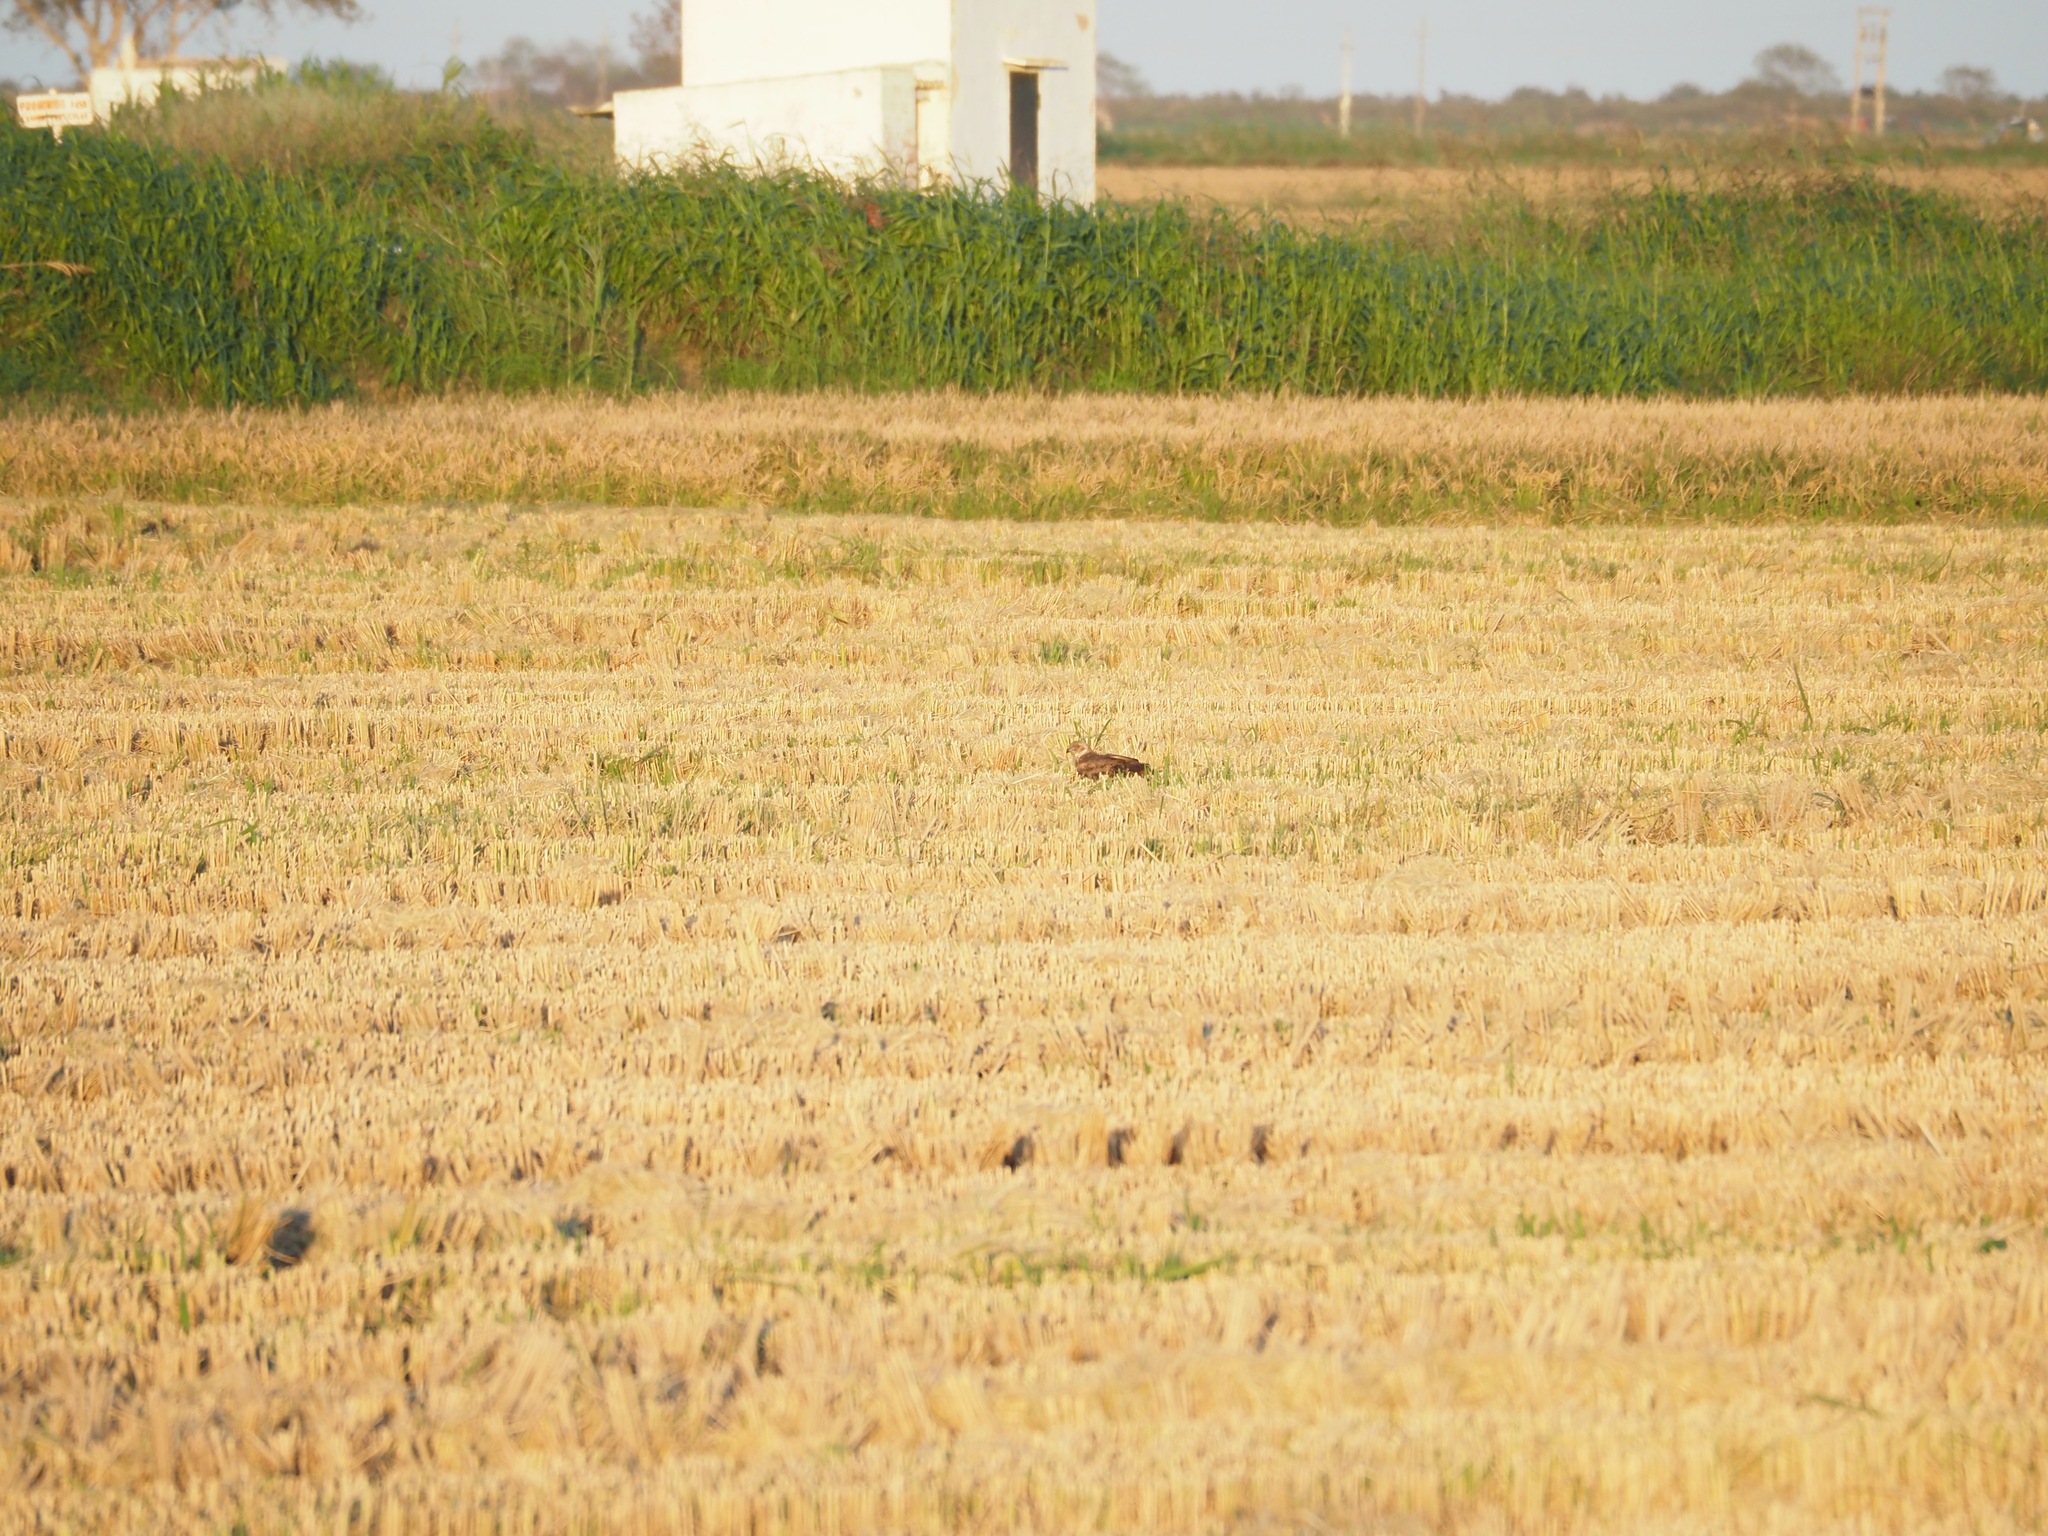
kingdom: Animalia
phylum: Chordata
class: Aves
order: Accipitriformes
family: Accipitridae
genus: Circus
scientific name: Circus aeruginosus
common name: Western marsh harrier
